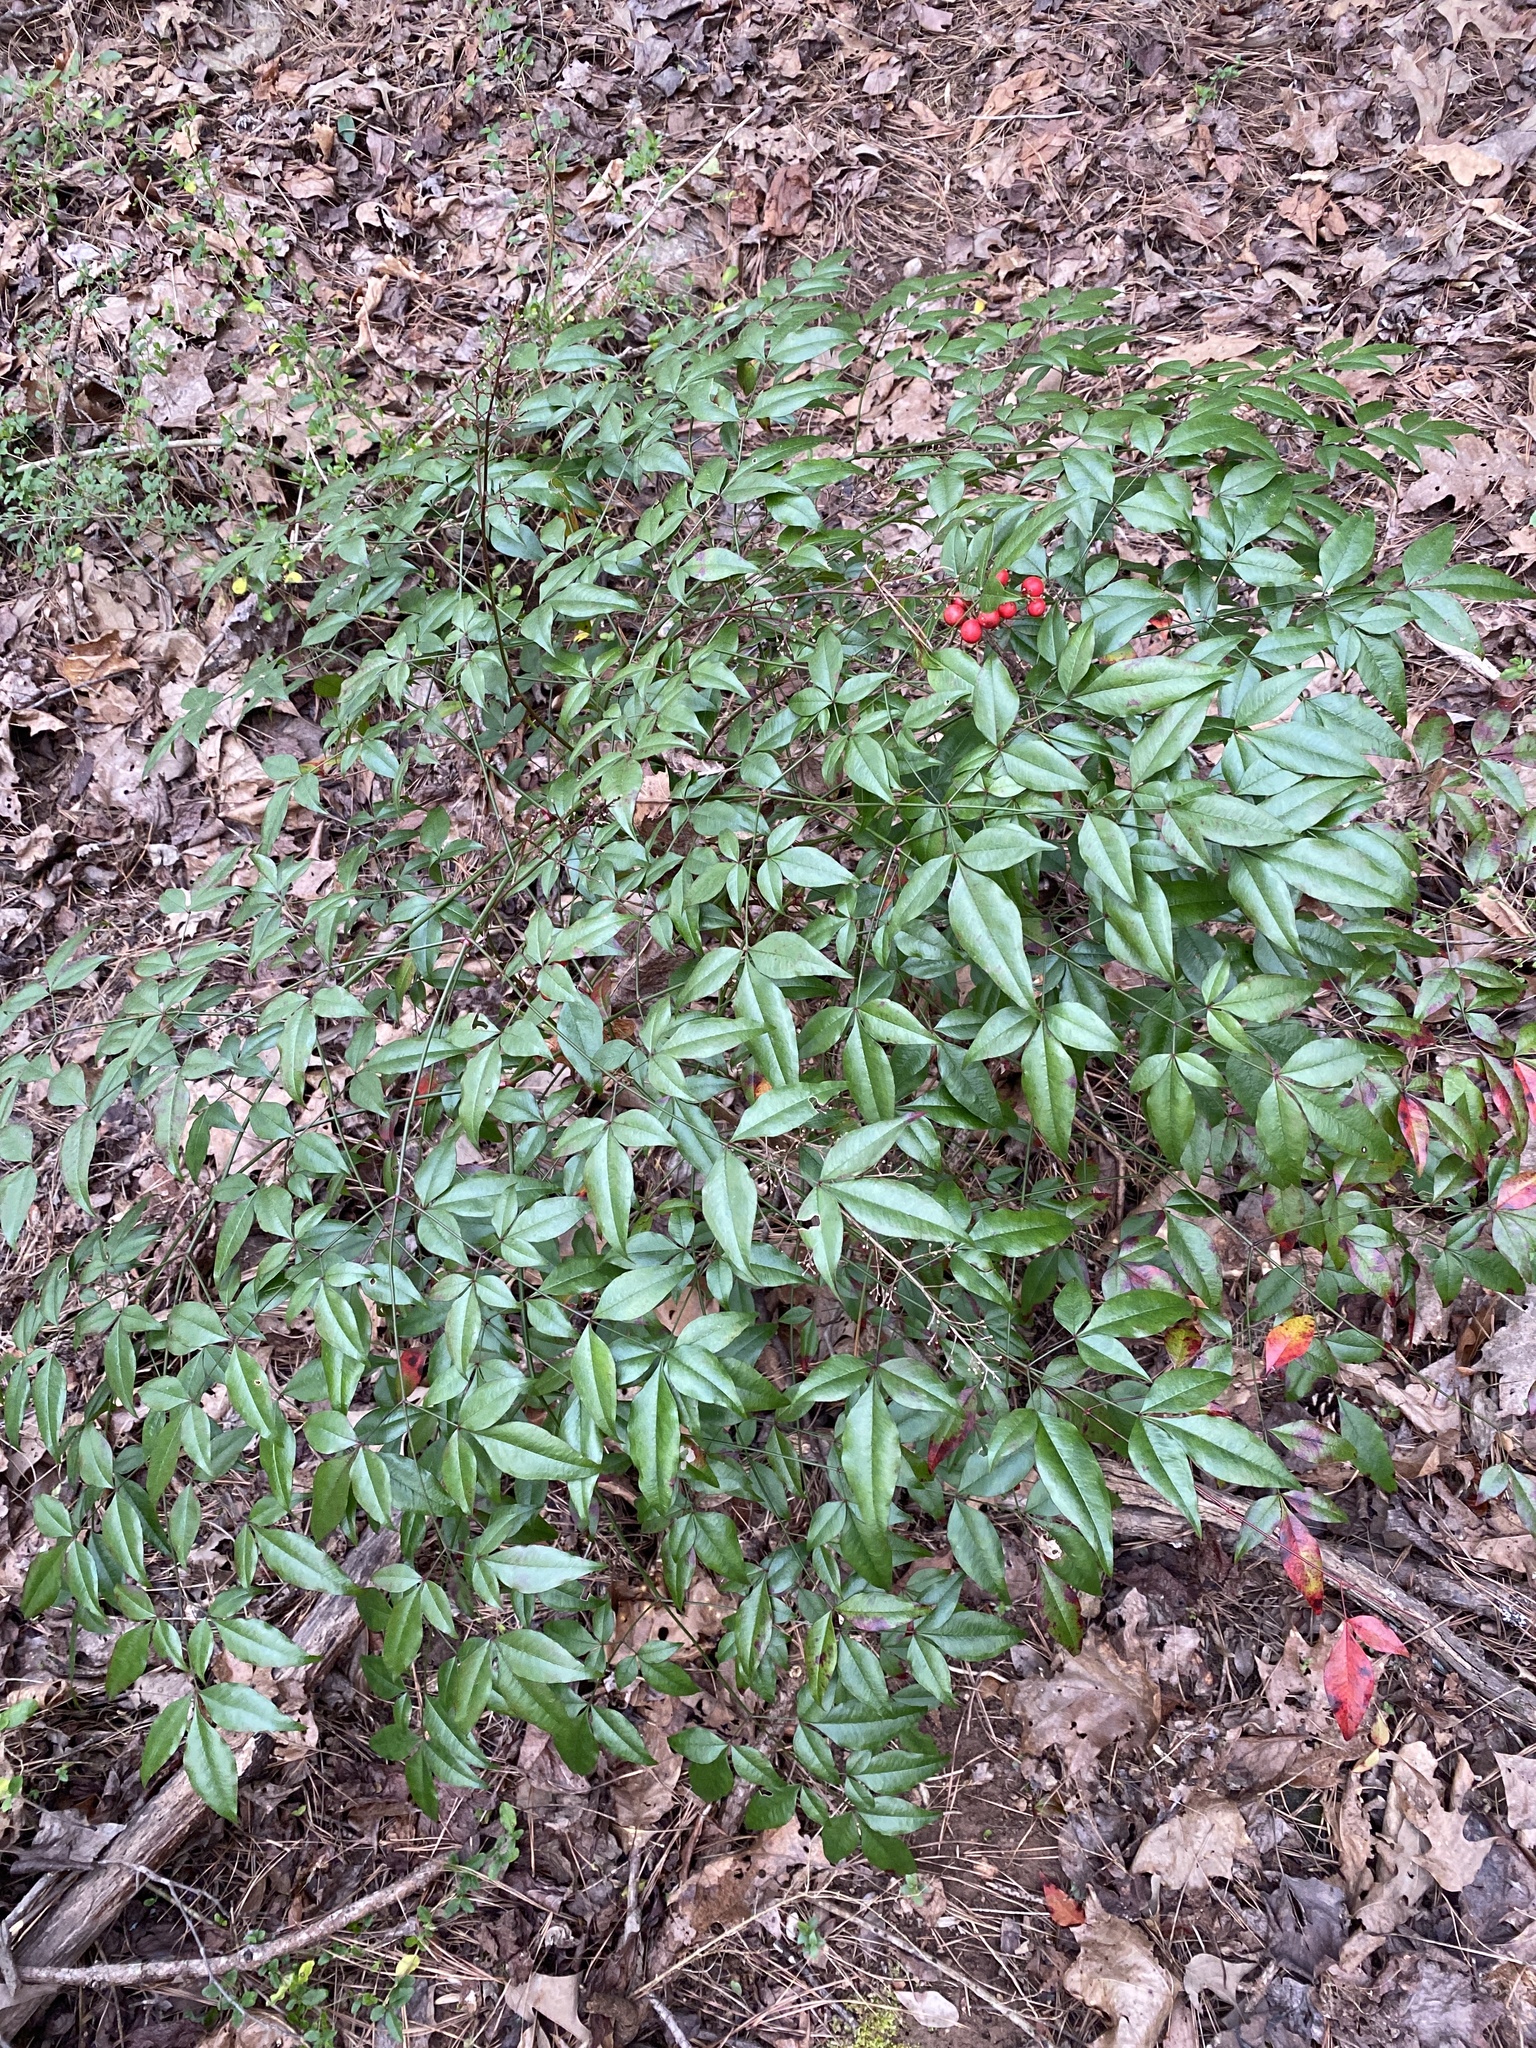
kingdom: Plantae
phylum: Tracheophyta
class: Magnoliopsida
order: Ranunculales
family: Berberidaceae
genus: Nandina
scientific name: Nandina domestica
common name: Sacred bamboo
